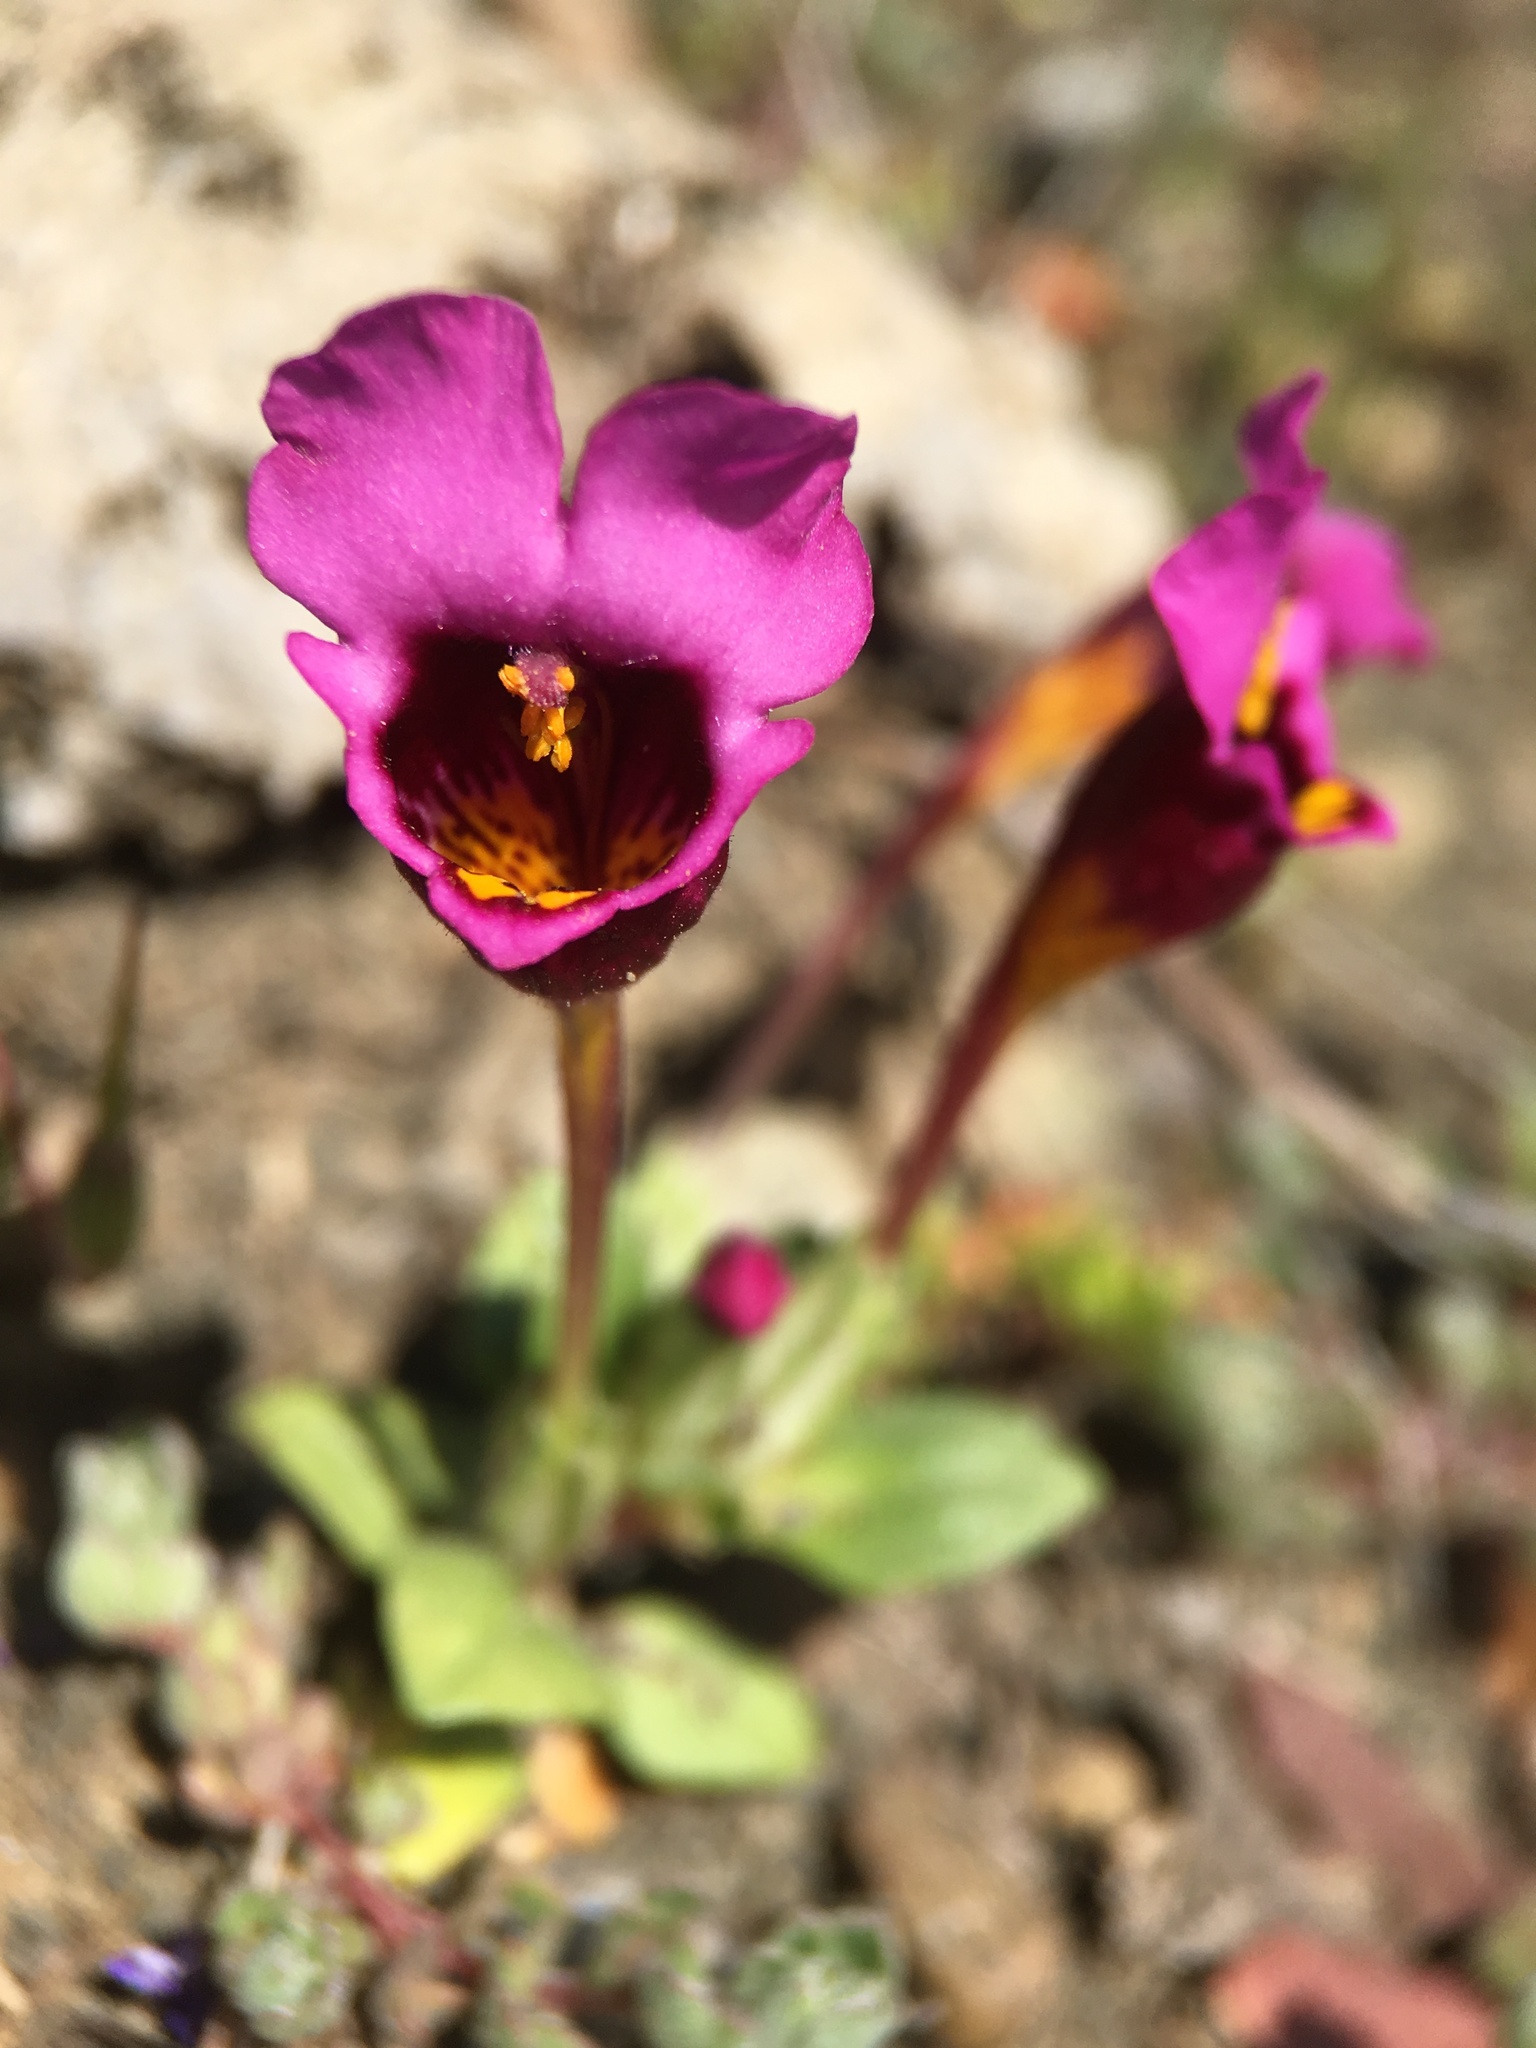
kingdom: Plantae
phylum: Tracheophyta
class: Magnoliopsida
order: Lamiales
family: Phrymaceae
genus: Diplacus
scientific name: Diplacus douglasii
